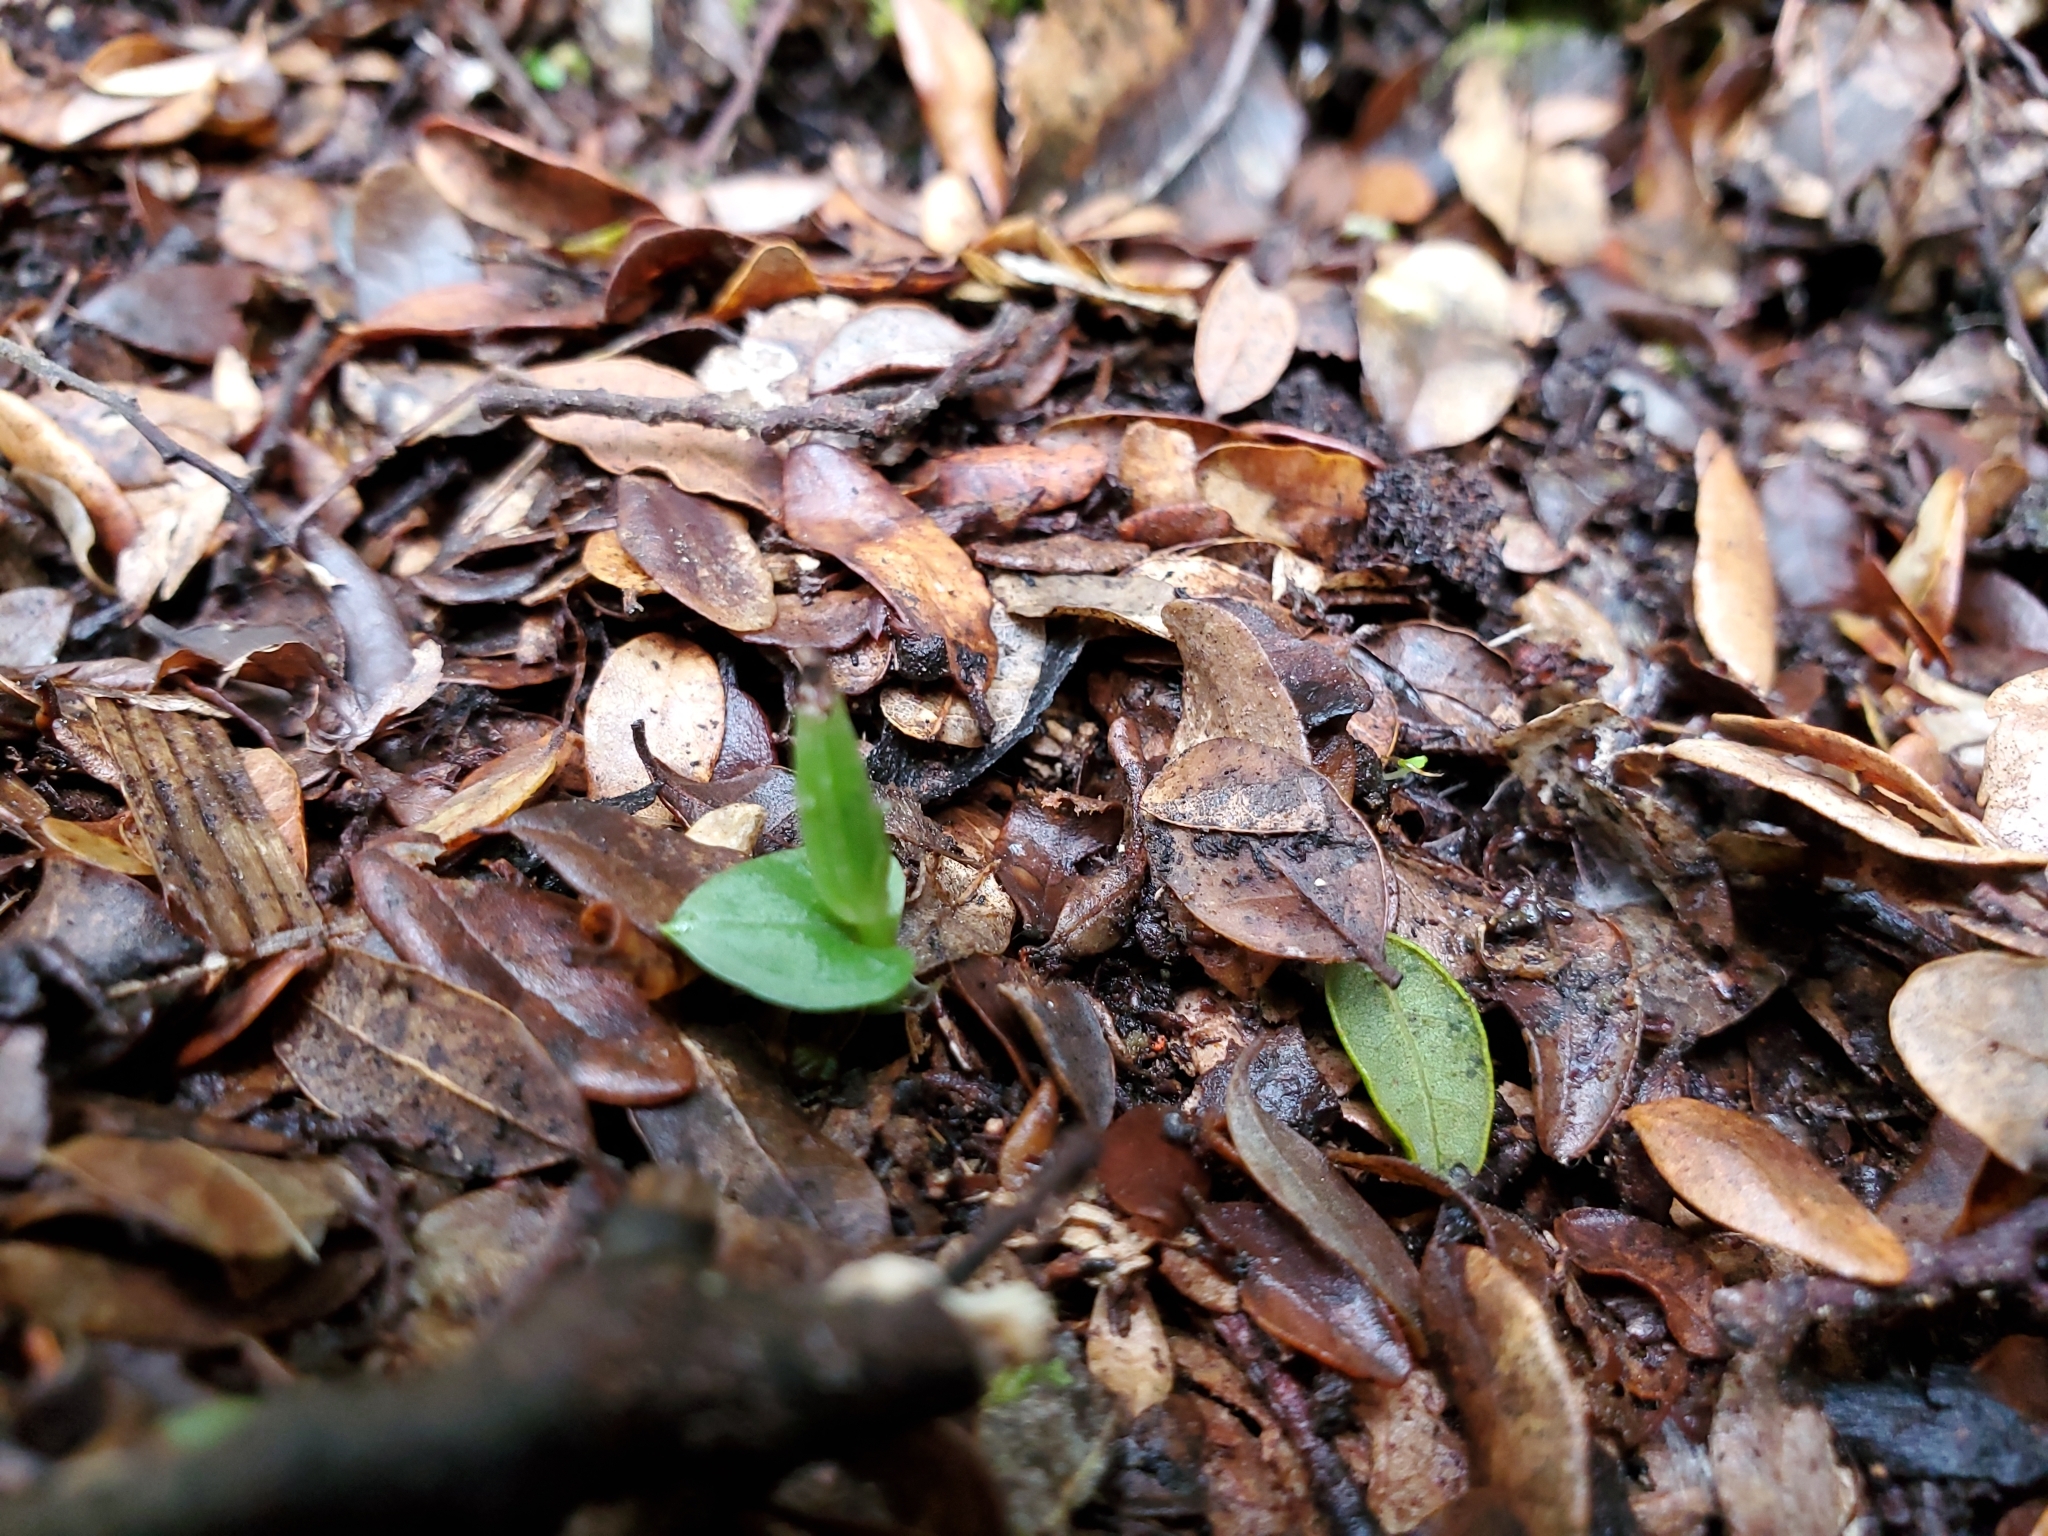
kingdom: Plantae
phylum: Tracheophyta
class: Liliopsida
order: Asparagales
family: Orchidaceae
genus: Corybas
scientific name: Corybas cheesemanii
